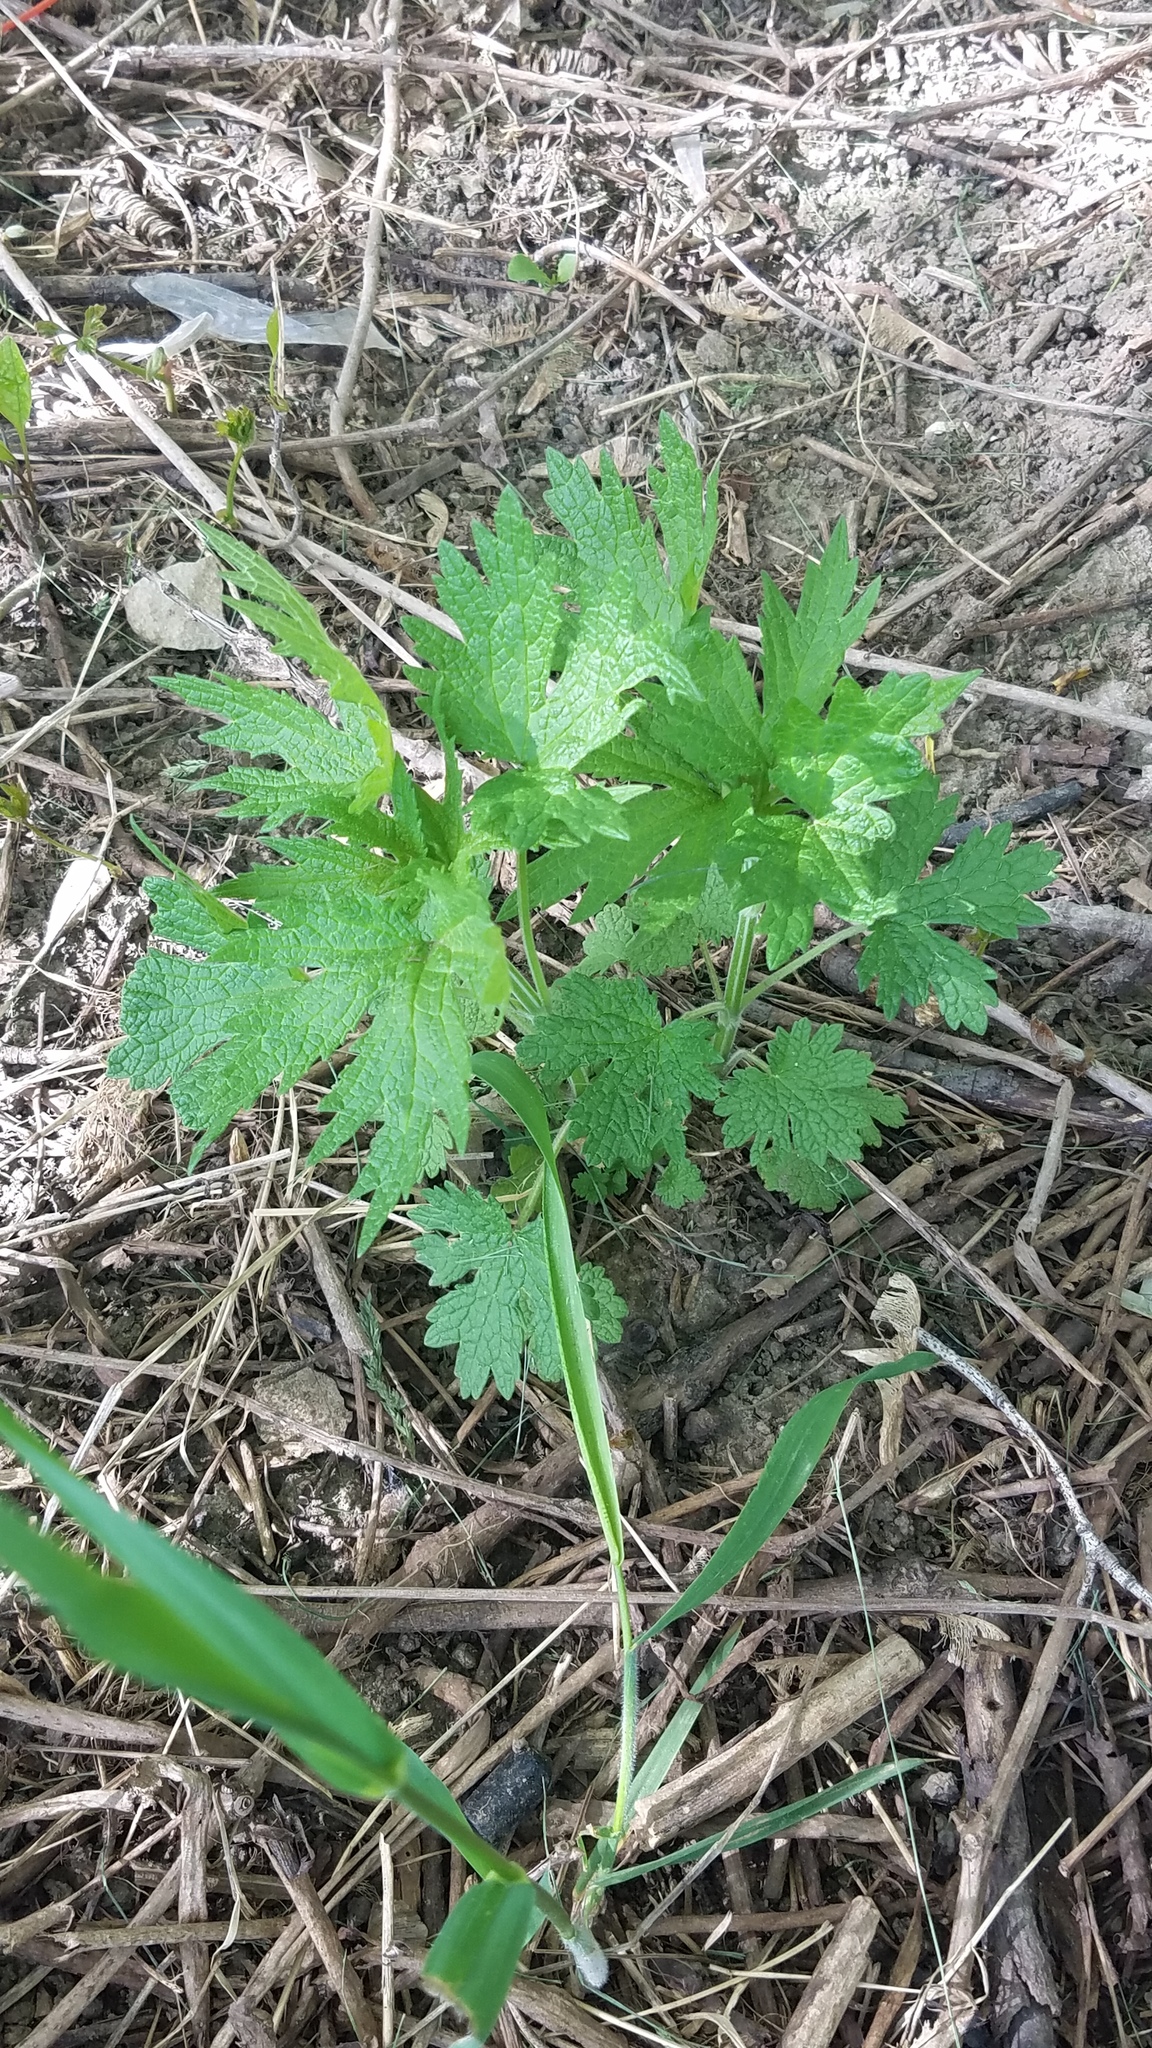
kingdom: Plantae
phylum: Tracheophyta
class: Magnoliopsida
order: Lamiales
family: Lamiaceae
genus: Leonurus
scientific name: Leonurus cardiaca
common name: Motherwort
